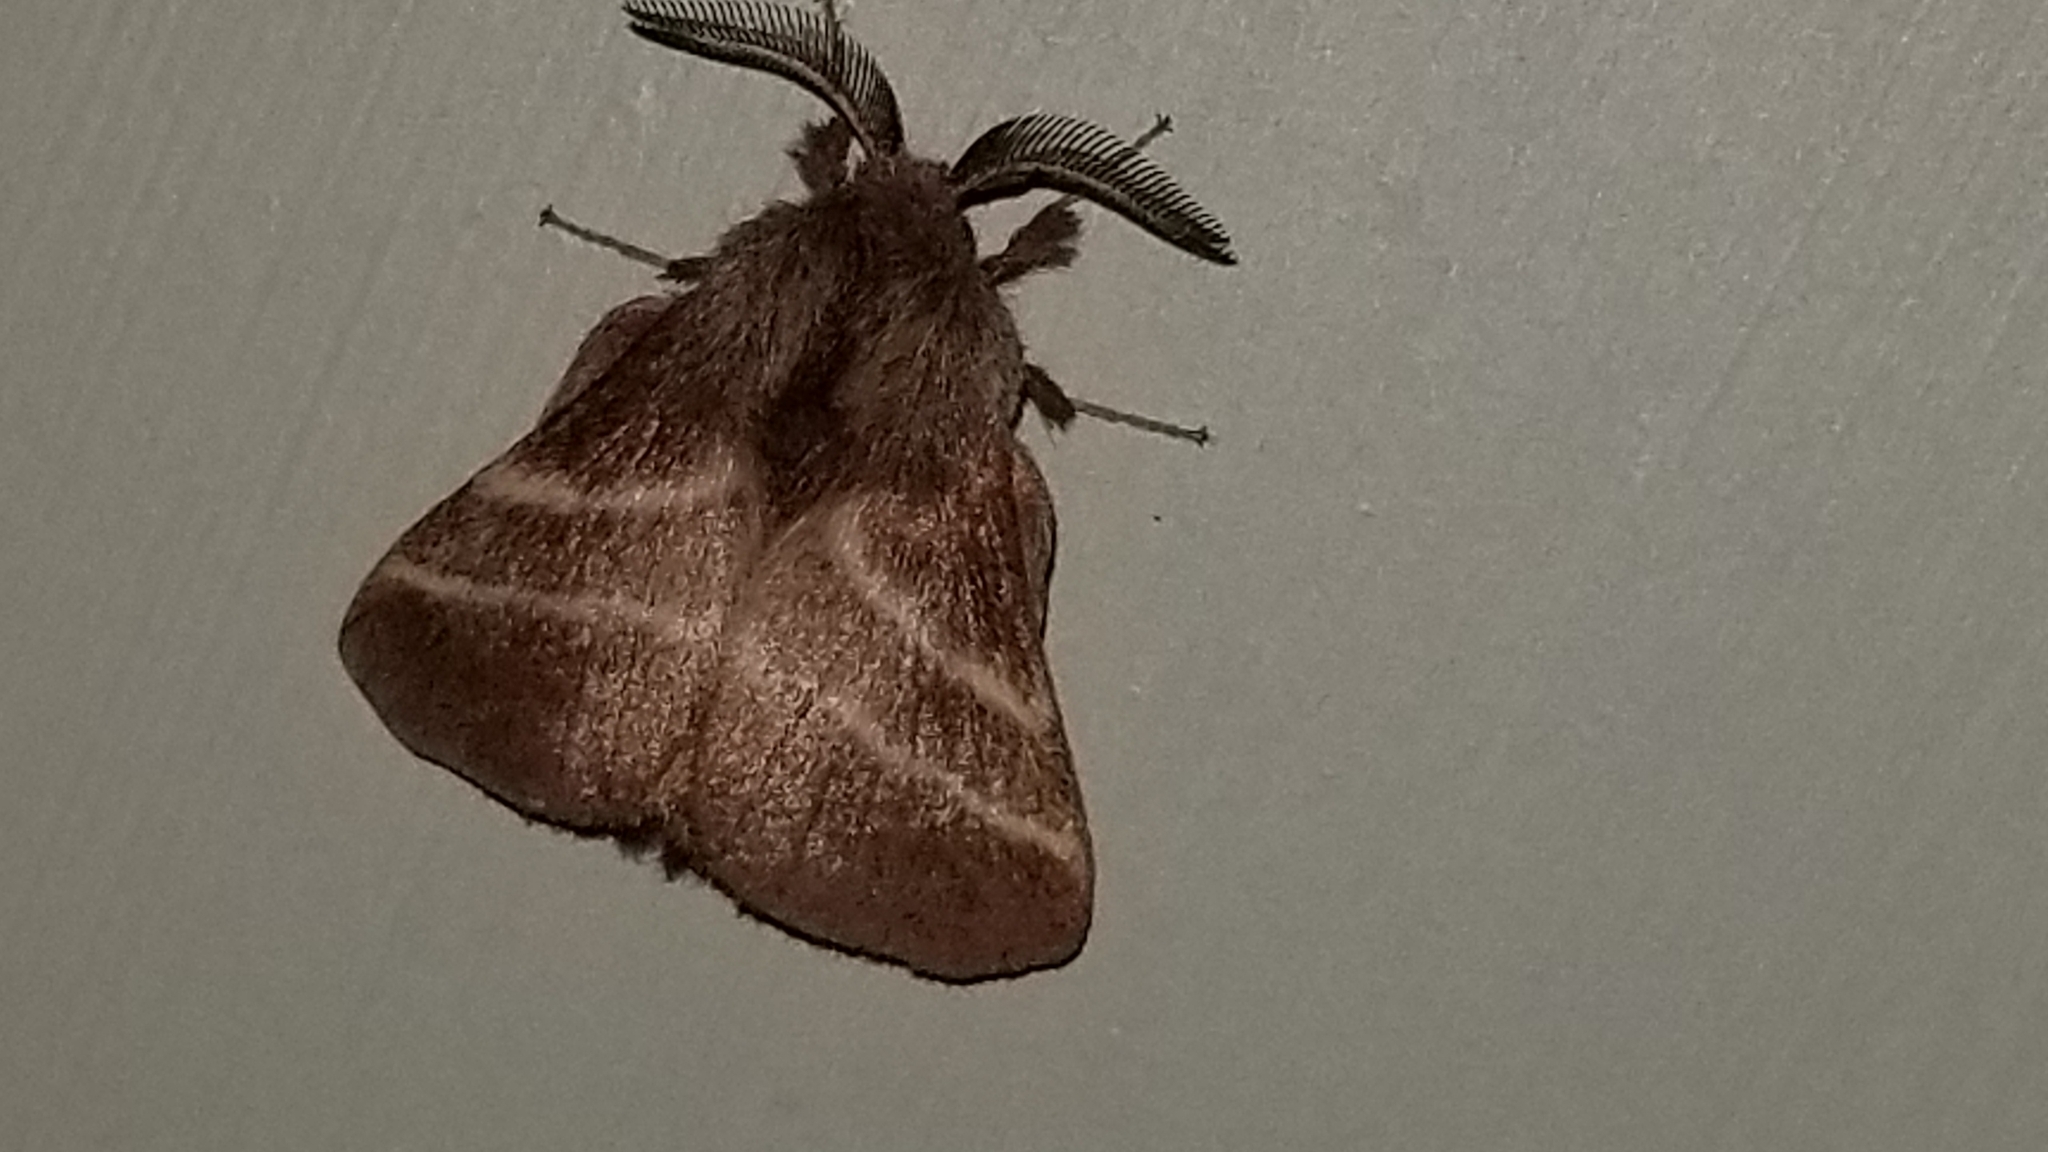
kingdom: Animalia
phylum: Arthropoda
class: Insecta
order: Lepidoptera
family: Lasiocampidae
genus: Malacosoma
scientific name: Malacosoma americana
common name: Eastern tent caterpillar moth
